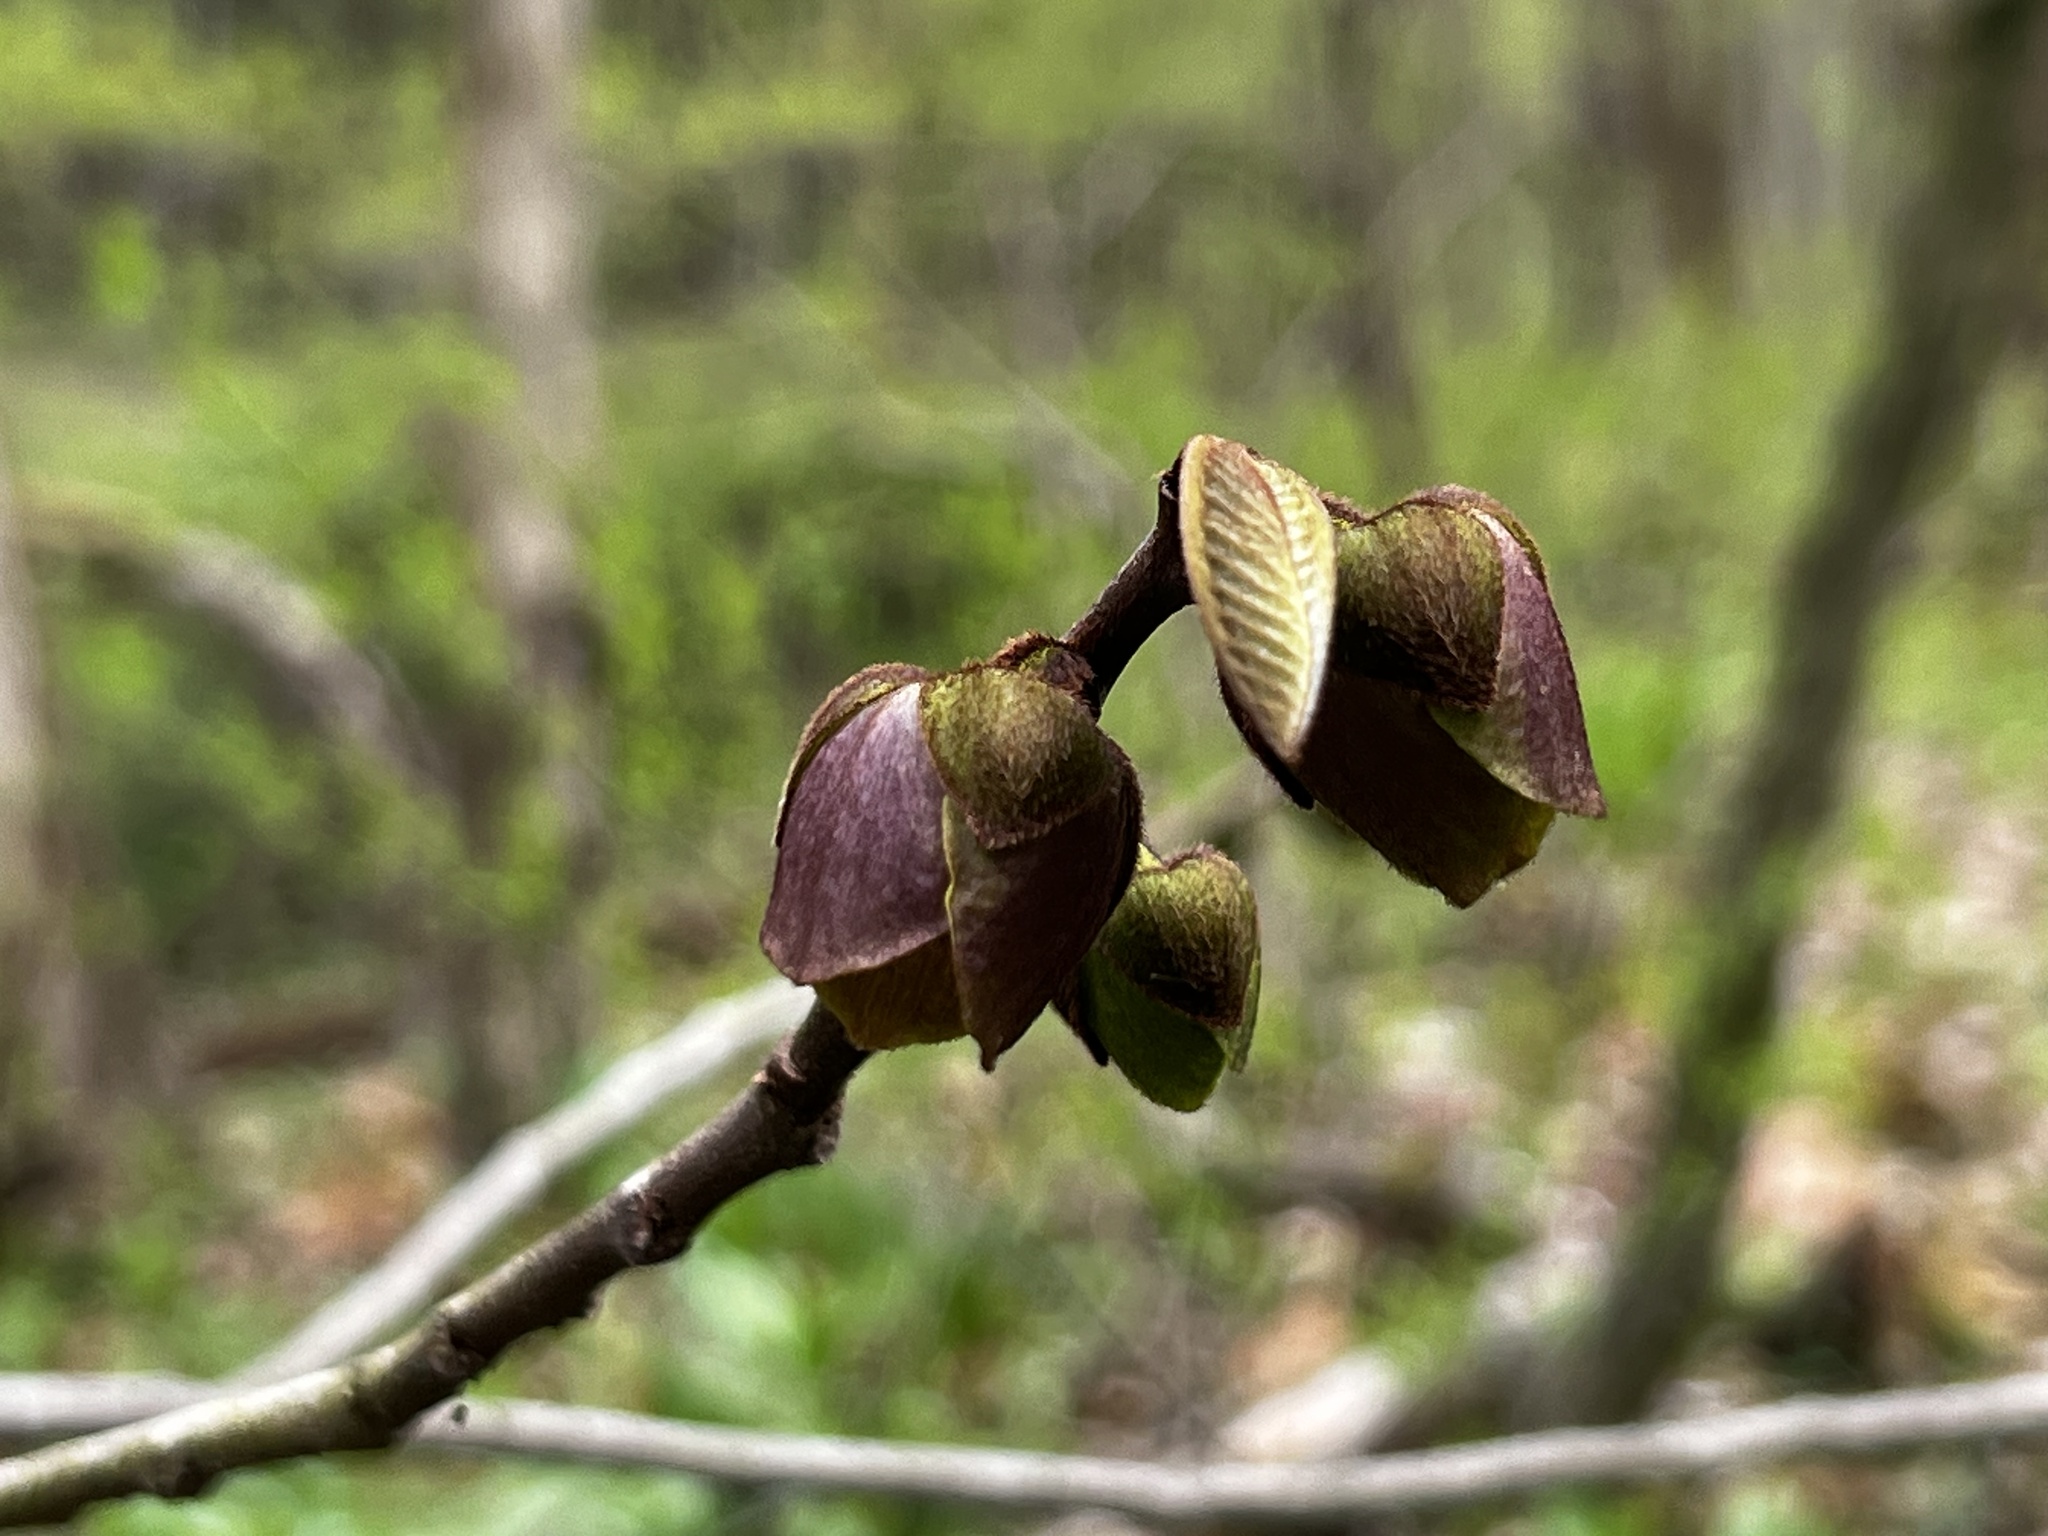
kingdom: Plantae
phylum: Tracheophyta
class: Magnoliopsida
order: Magnoliales
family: Annonaceae
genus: Asimina
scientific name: Asimina triloba
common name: Dog-banana
